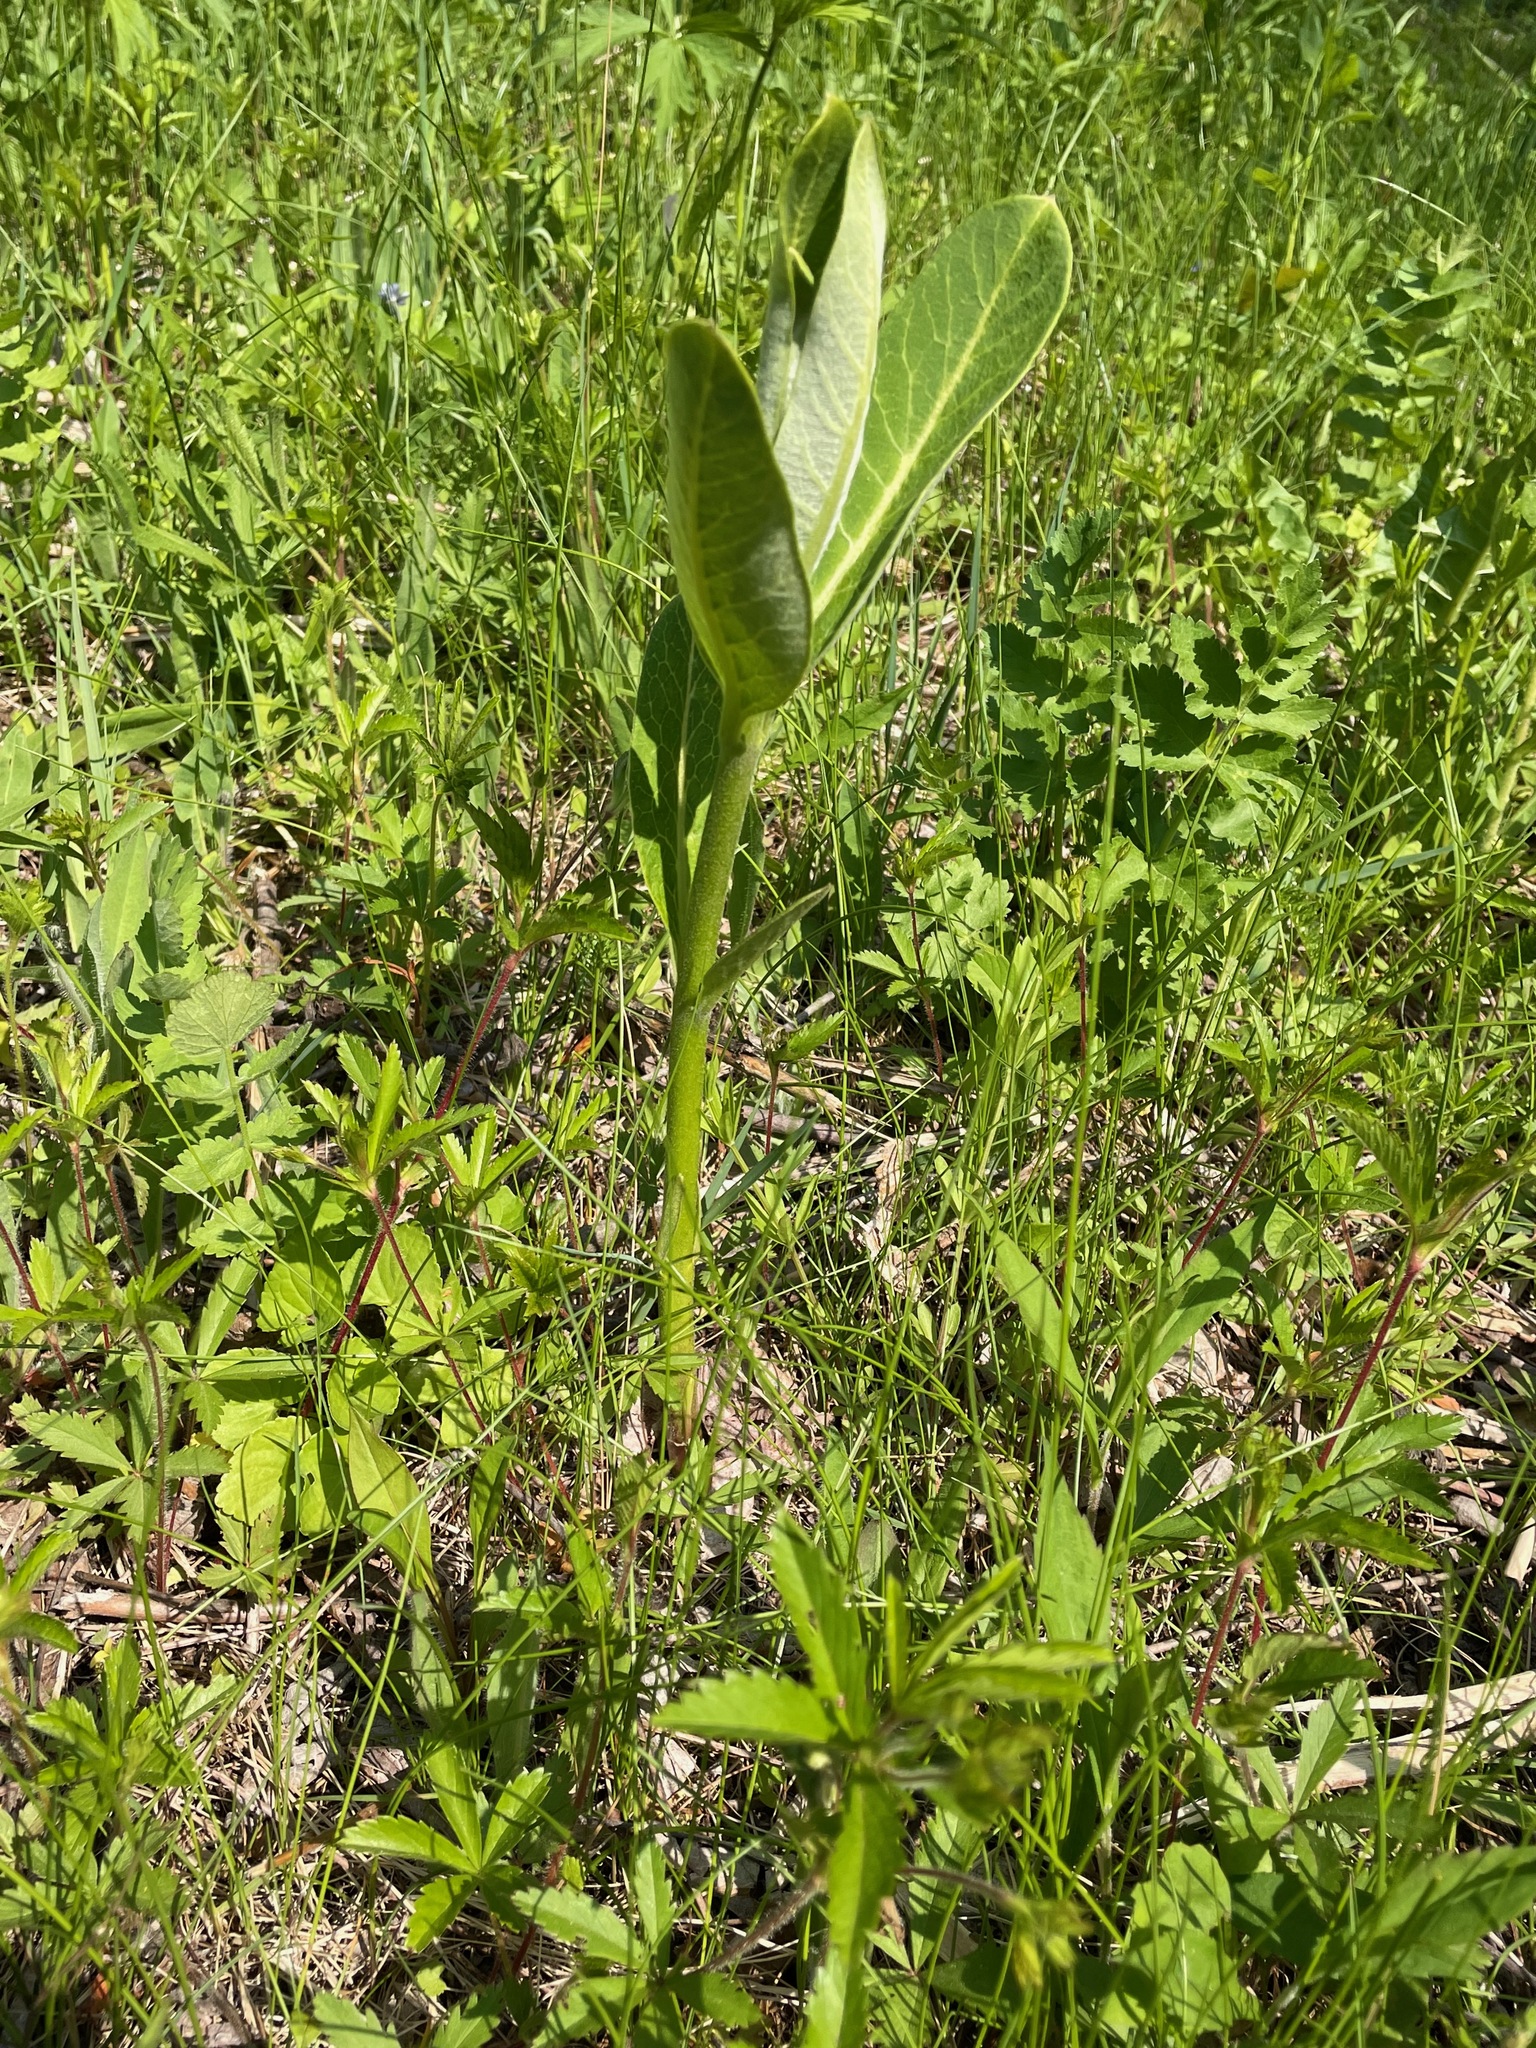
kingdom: Plantae
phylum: Tracheophyta
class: Magnoliopsida
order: Gentianales
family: Apocynaceae
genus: Asclepias
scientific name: Asclepias syriaca
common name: Common milkweed
